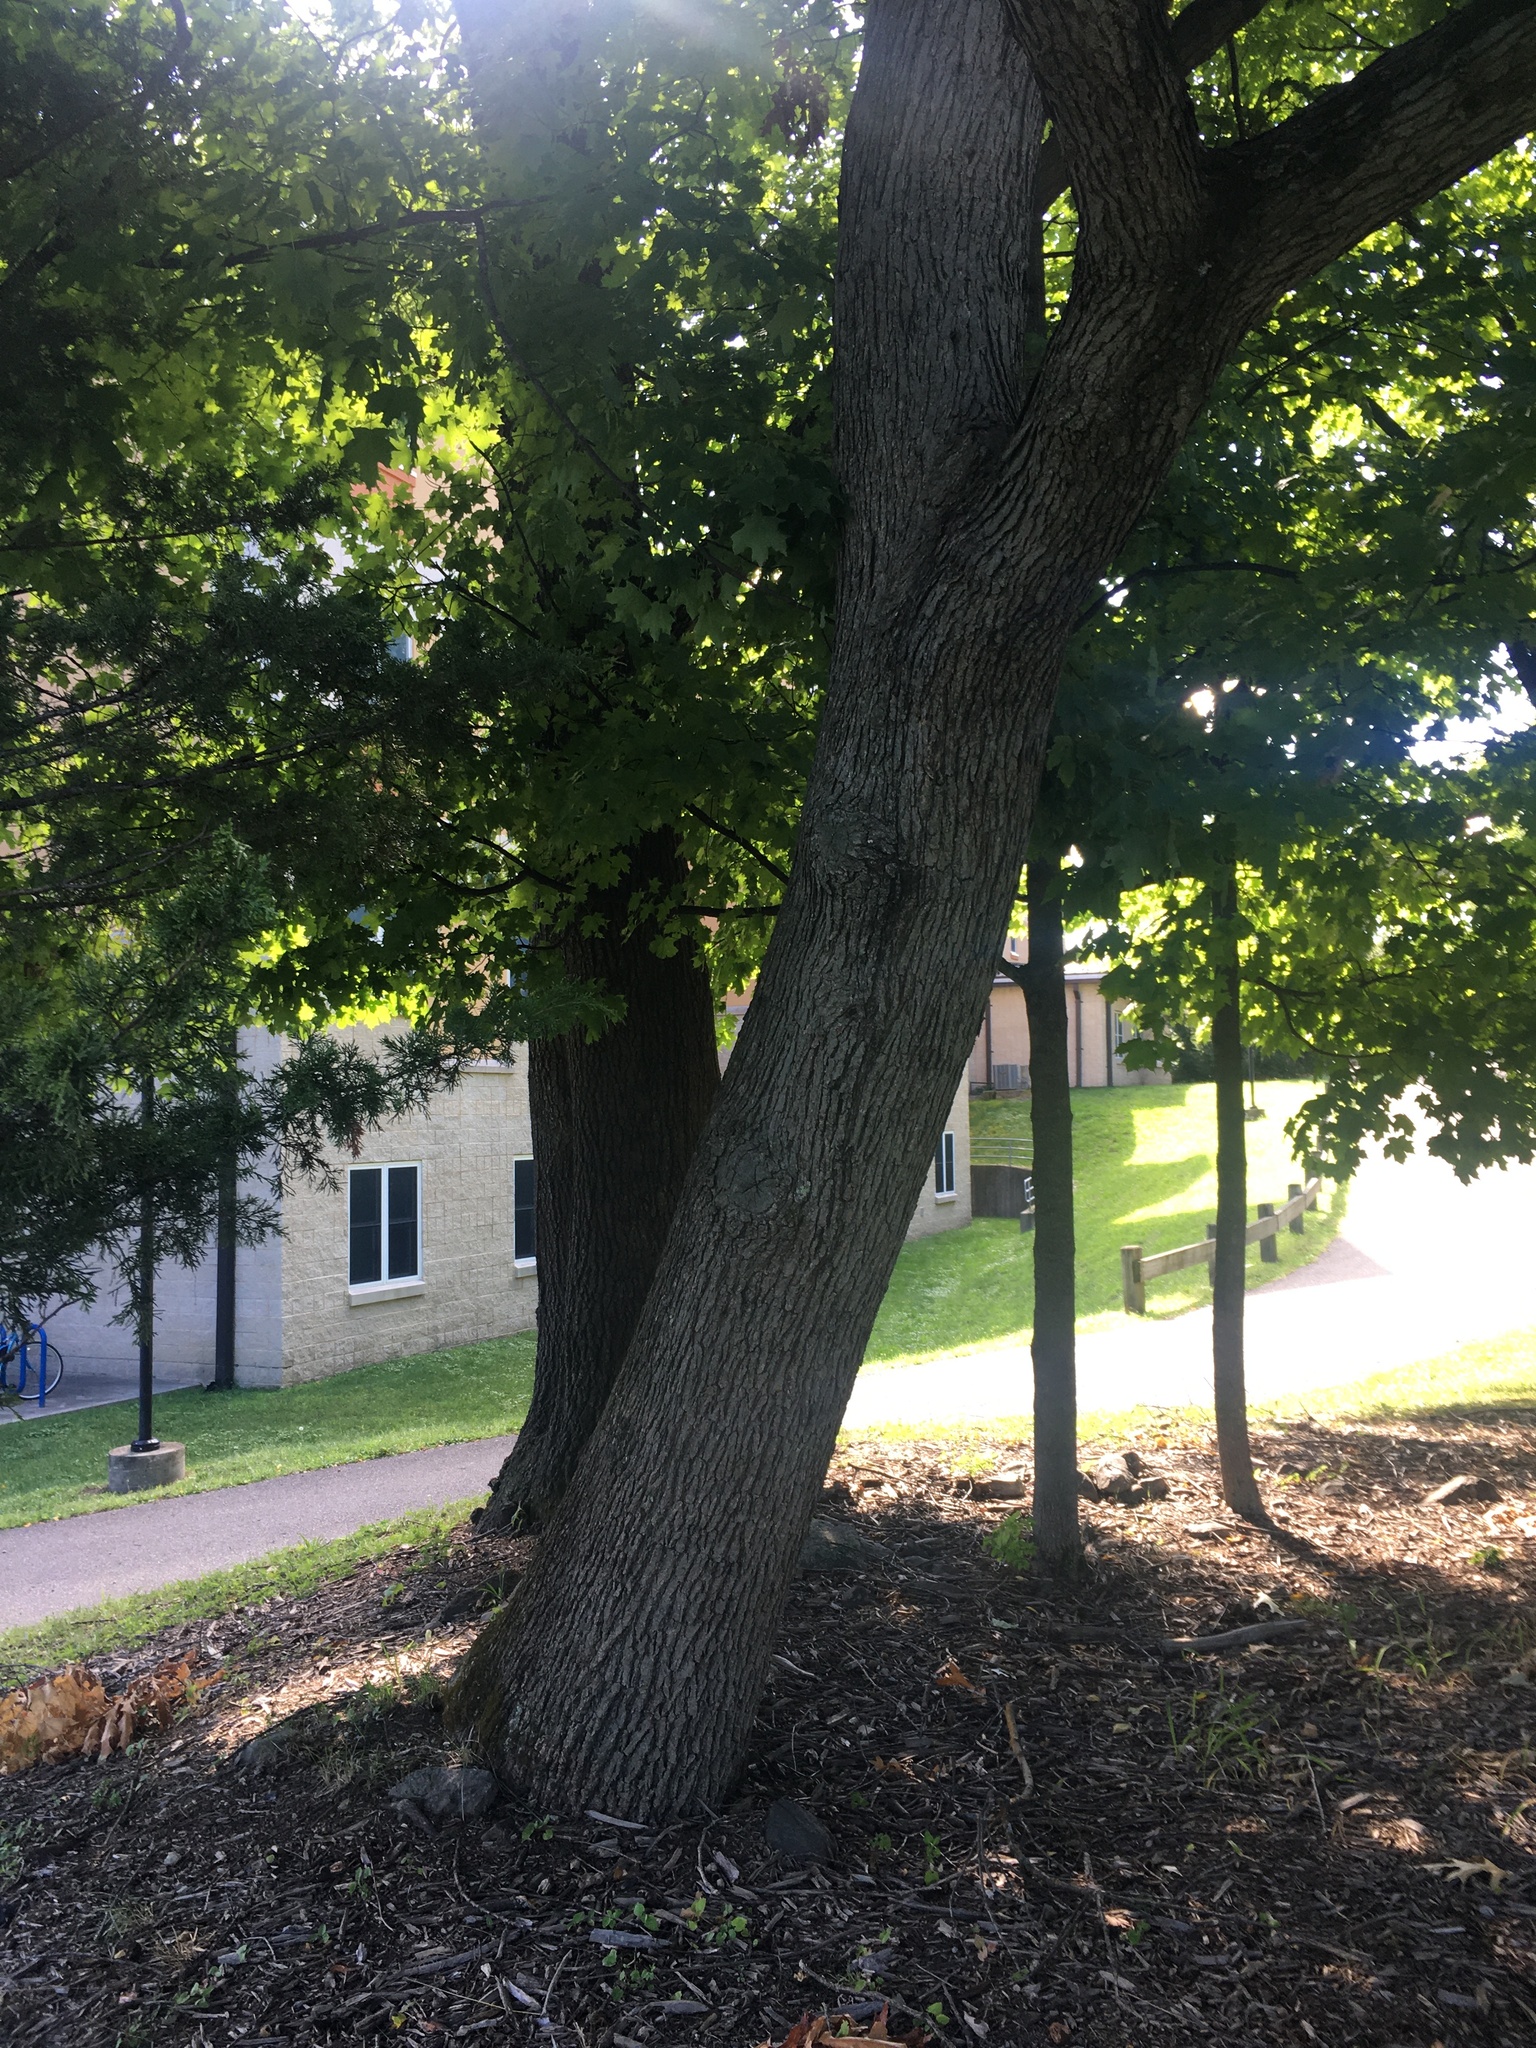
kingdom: Plantae
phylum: Tracheophyta
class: Magnoliopsida
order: Fagales
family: Fagaceae
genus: Quercus
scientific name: Quercus alba
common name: White oak
